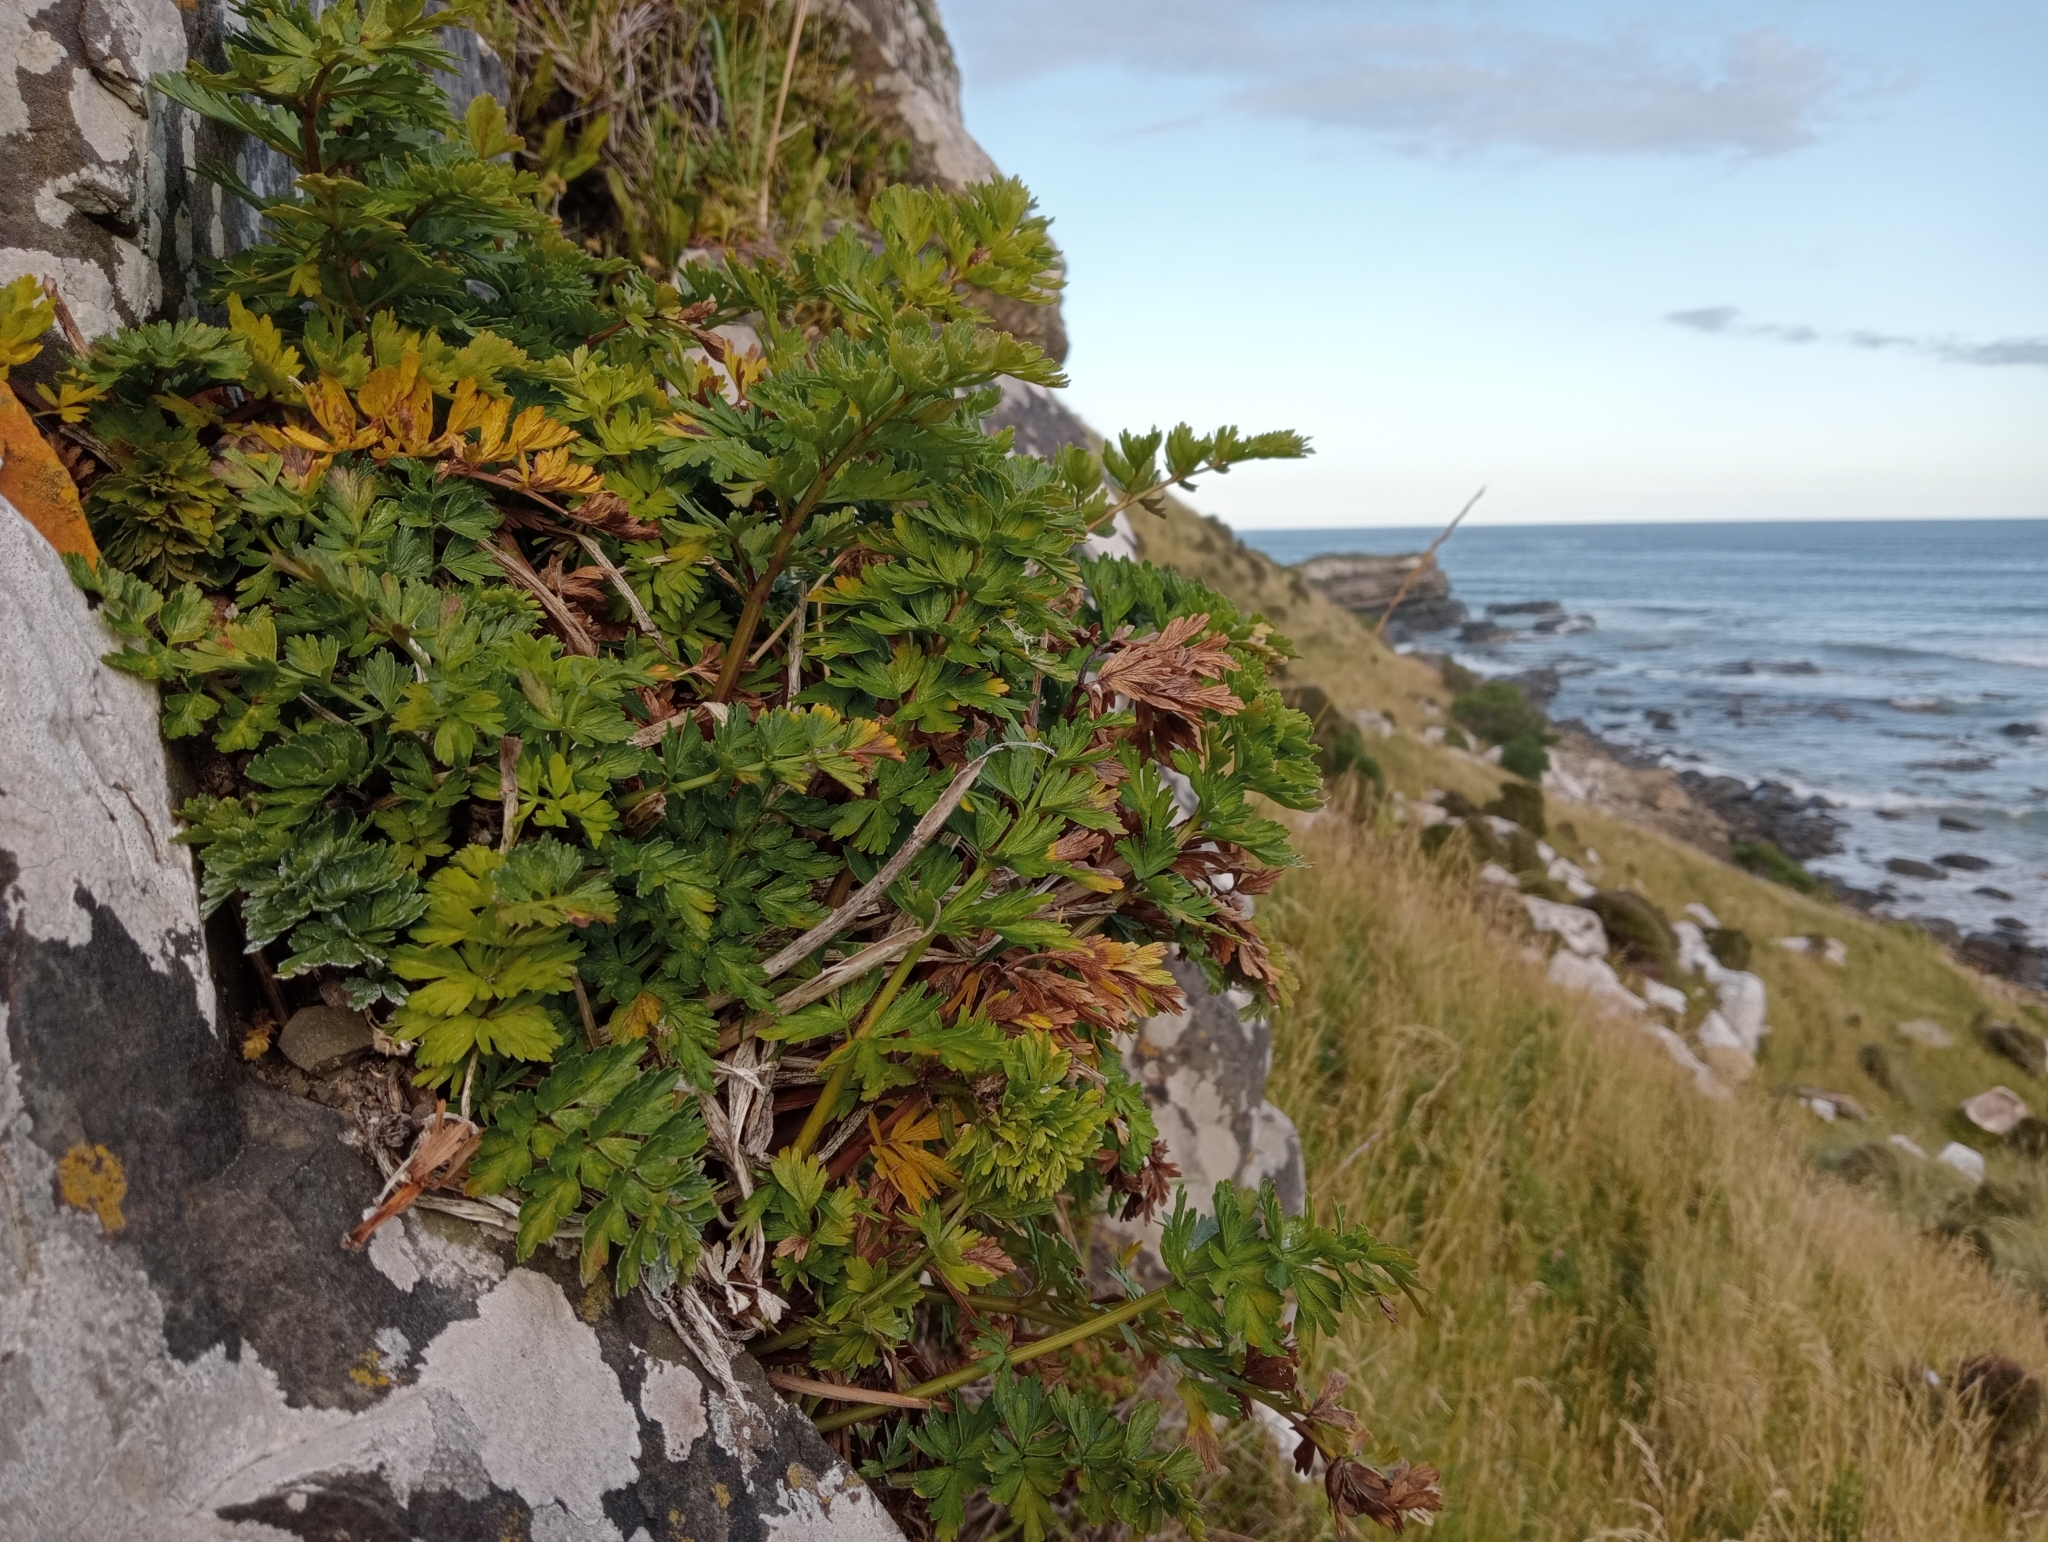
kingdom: Plantae
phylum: Tracheophyta
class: Magnoliopsida
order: Apiales
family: Apiaceae
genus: Anisotome
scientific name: Anisotome lyallii
